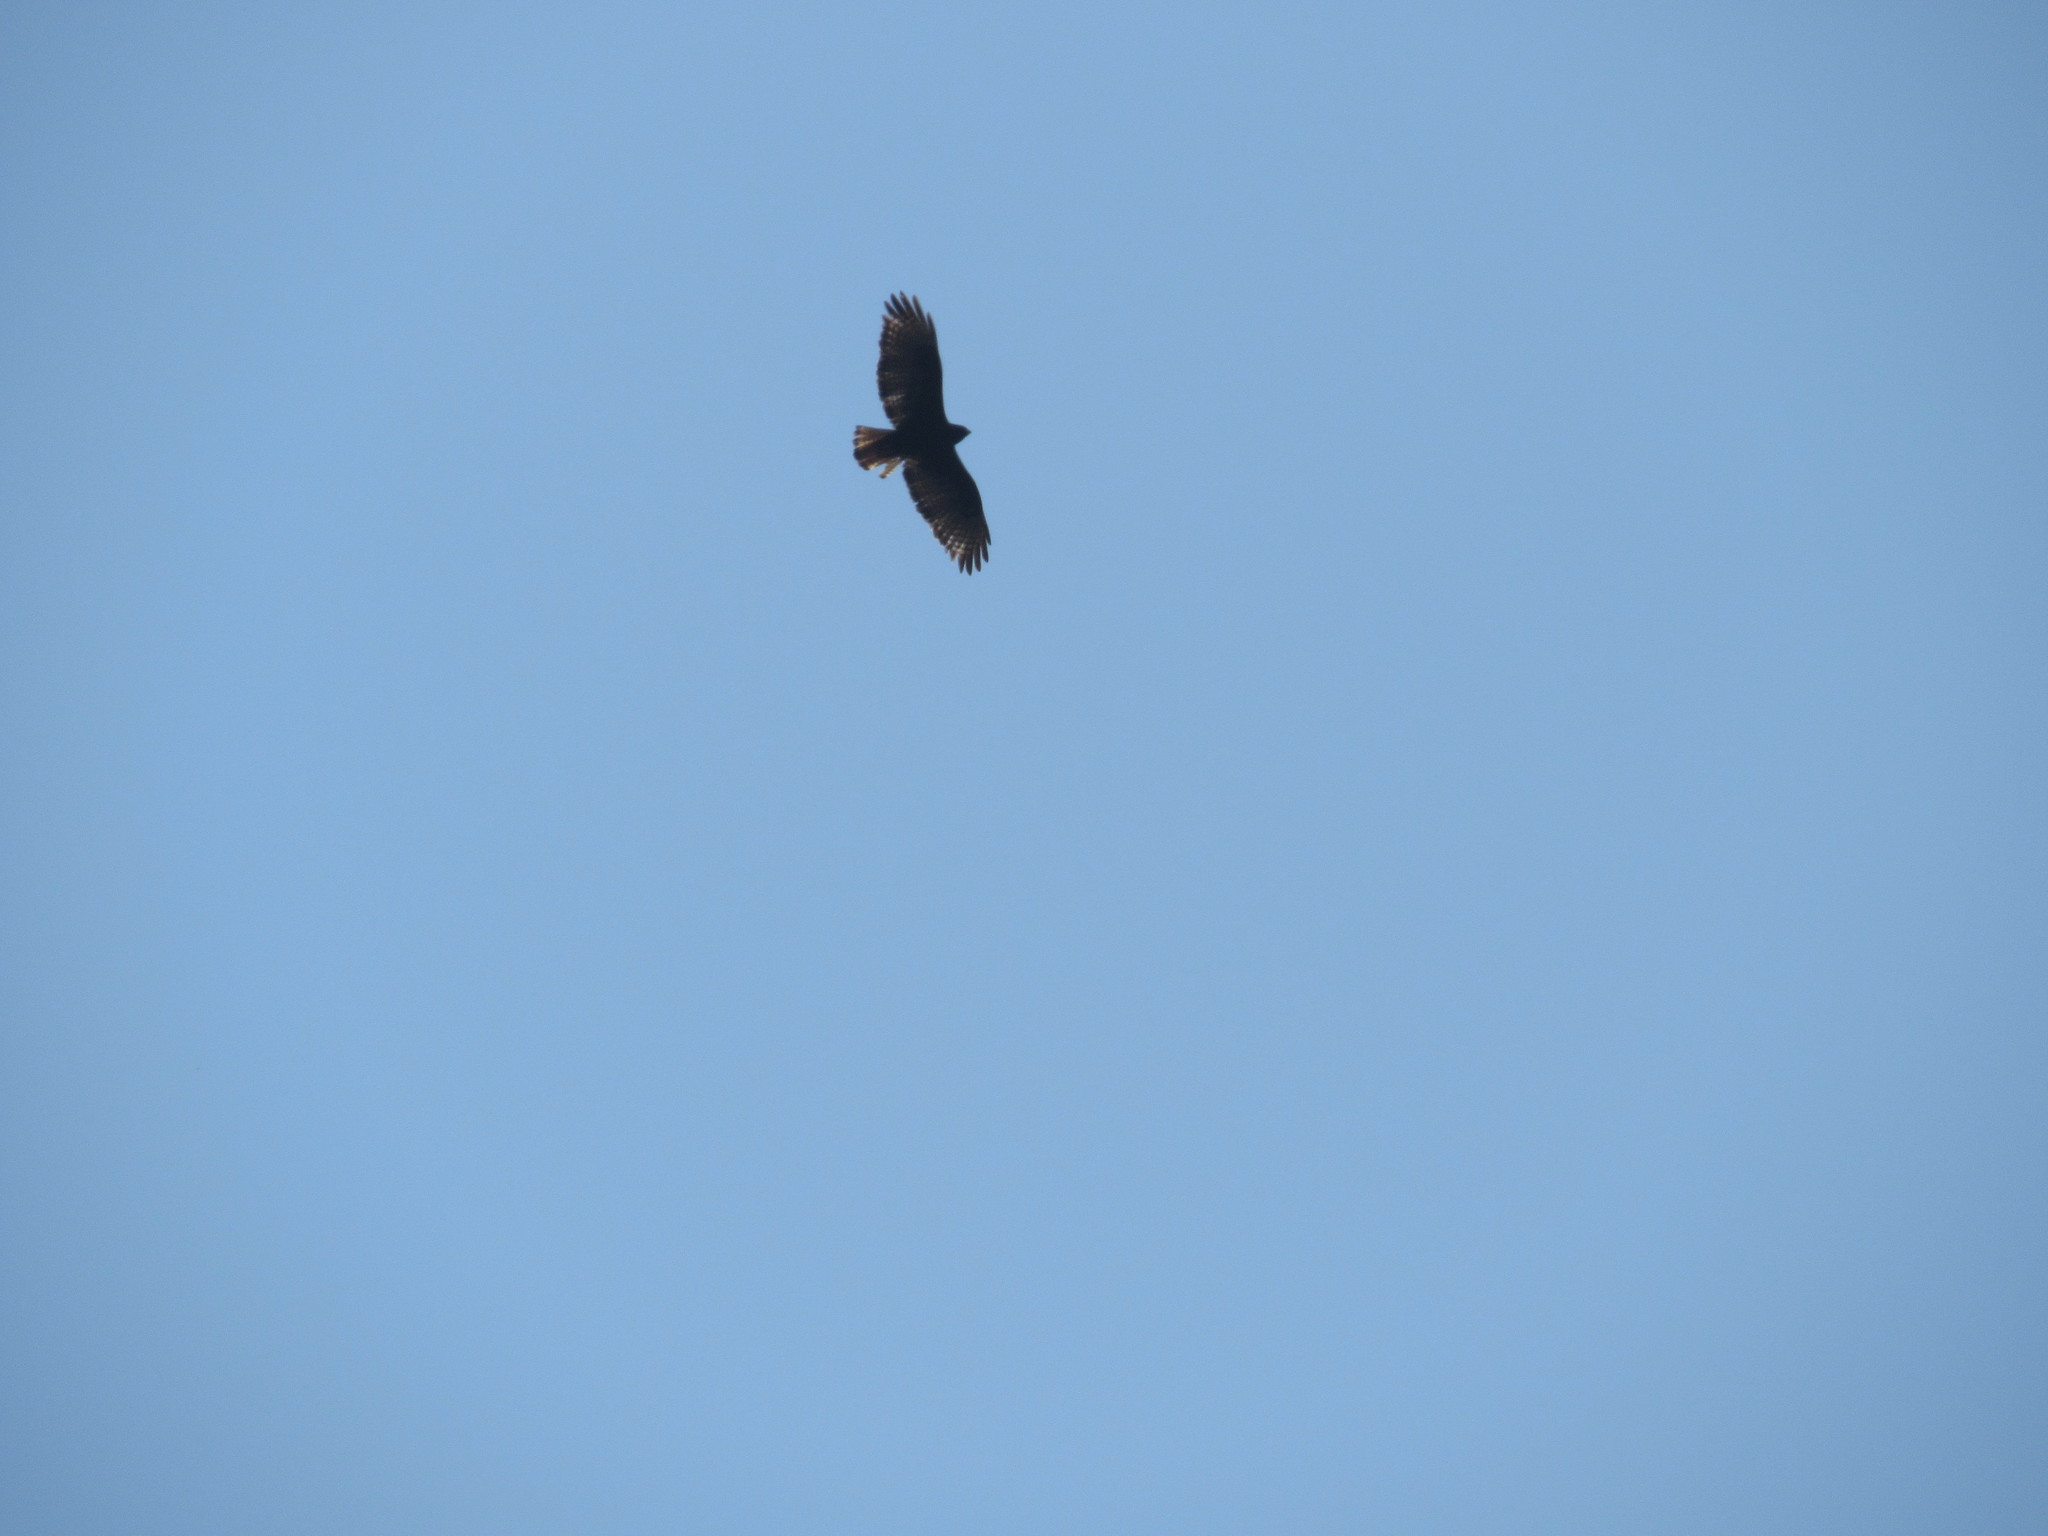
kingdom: Animalia
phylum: Chordata
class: Aves
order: Accipitriformes
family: Accipitridae
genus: Buteo
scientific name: Buteo jamaicensis
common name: Red-tailed hawk
